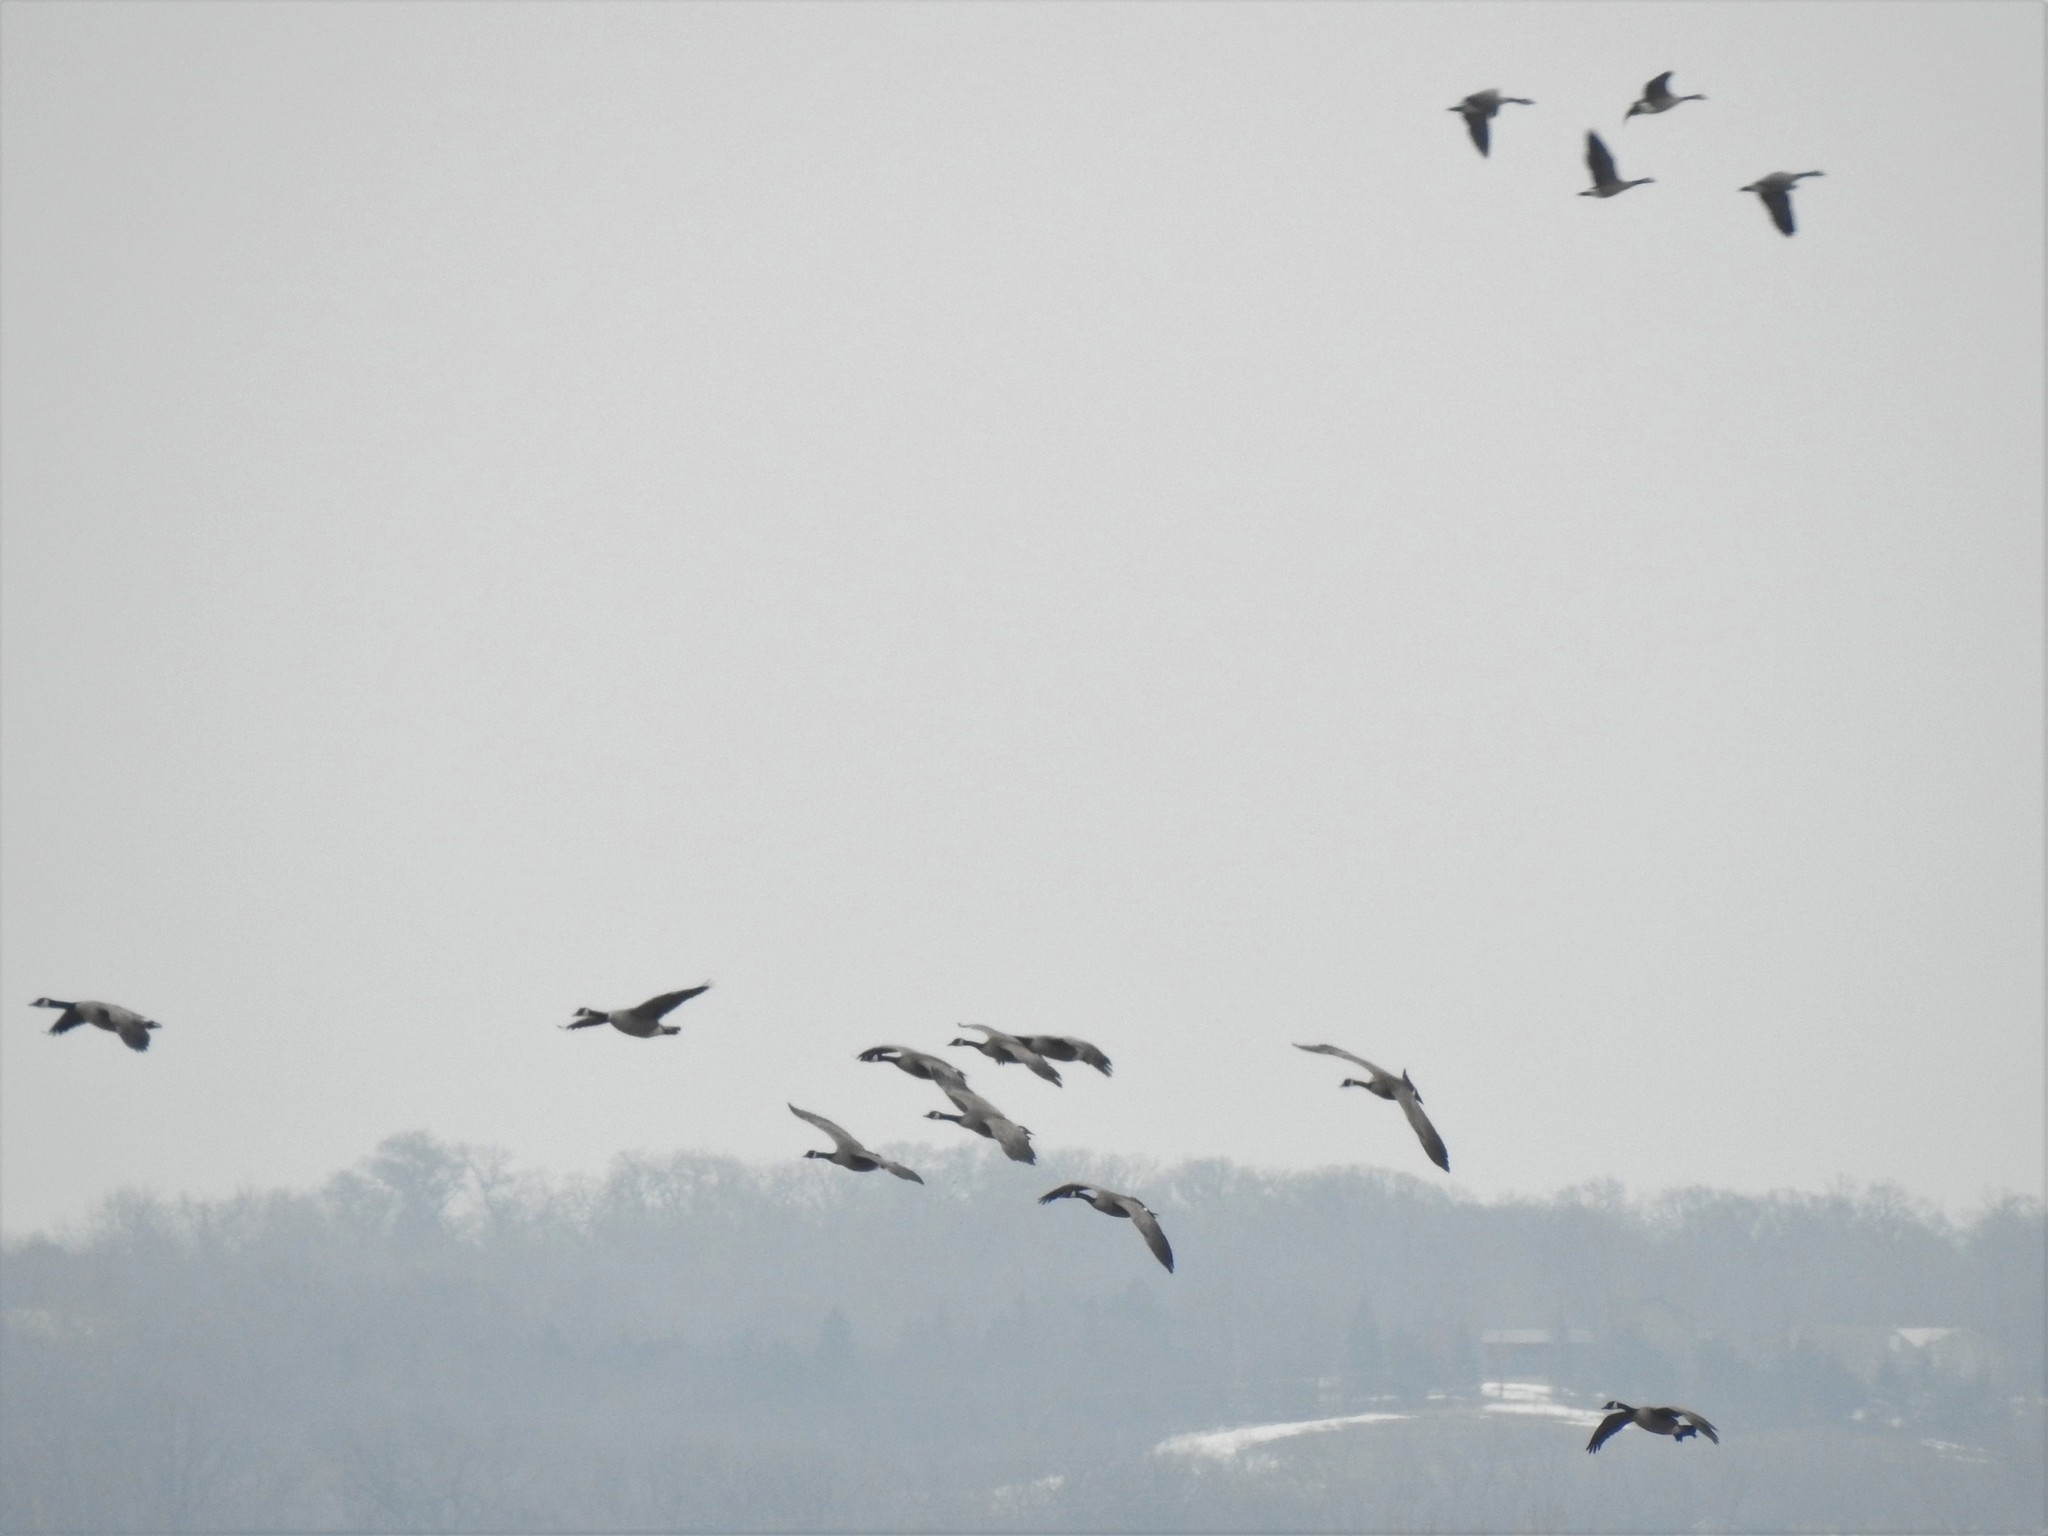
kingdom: Animalia
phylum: Chordata
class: Aves
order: Anseriformes
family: Anatidae
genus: Branta
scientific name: Branta canadensis
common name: Canada goose
